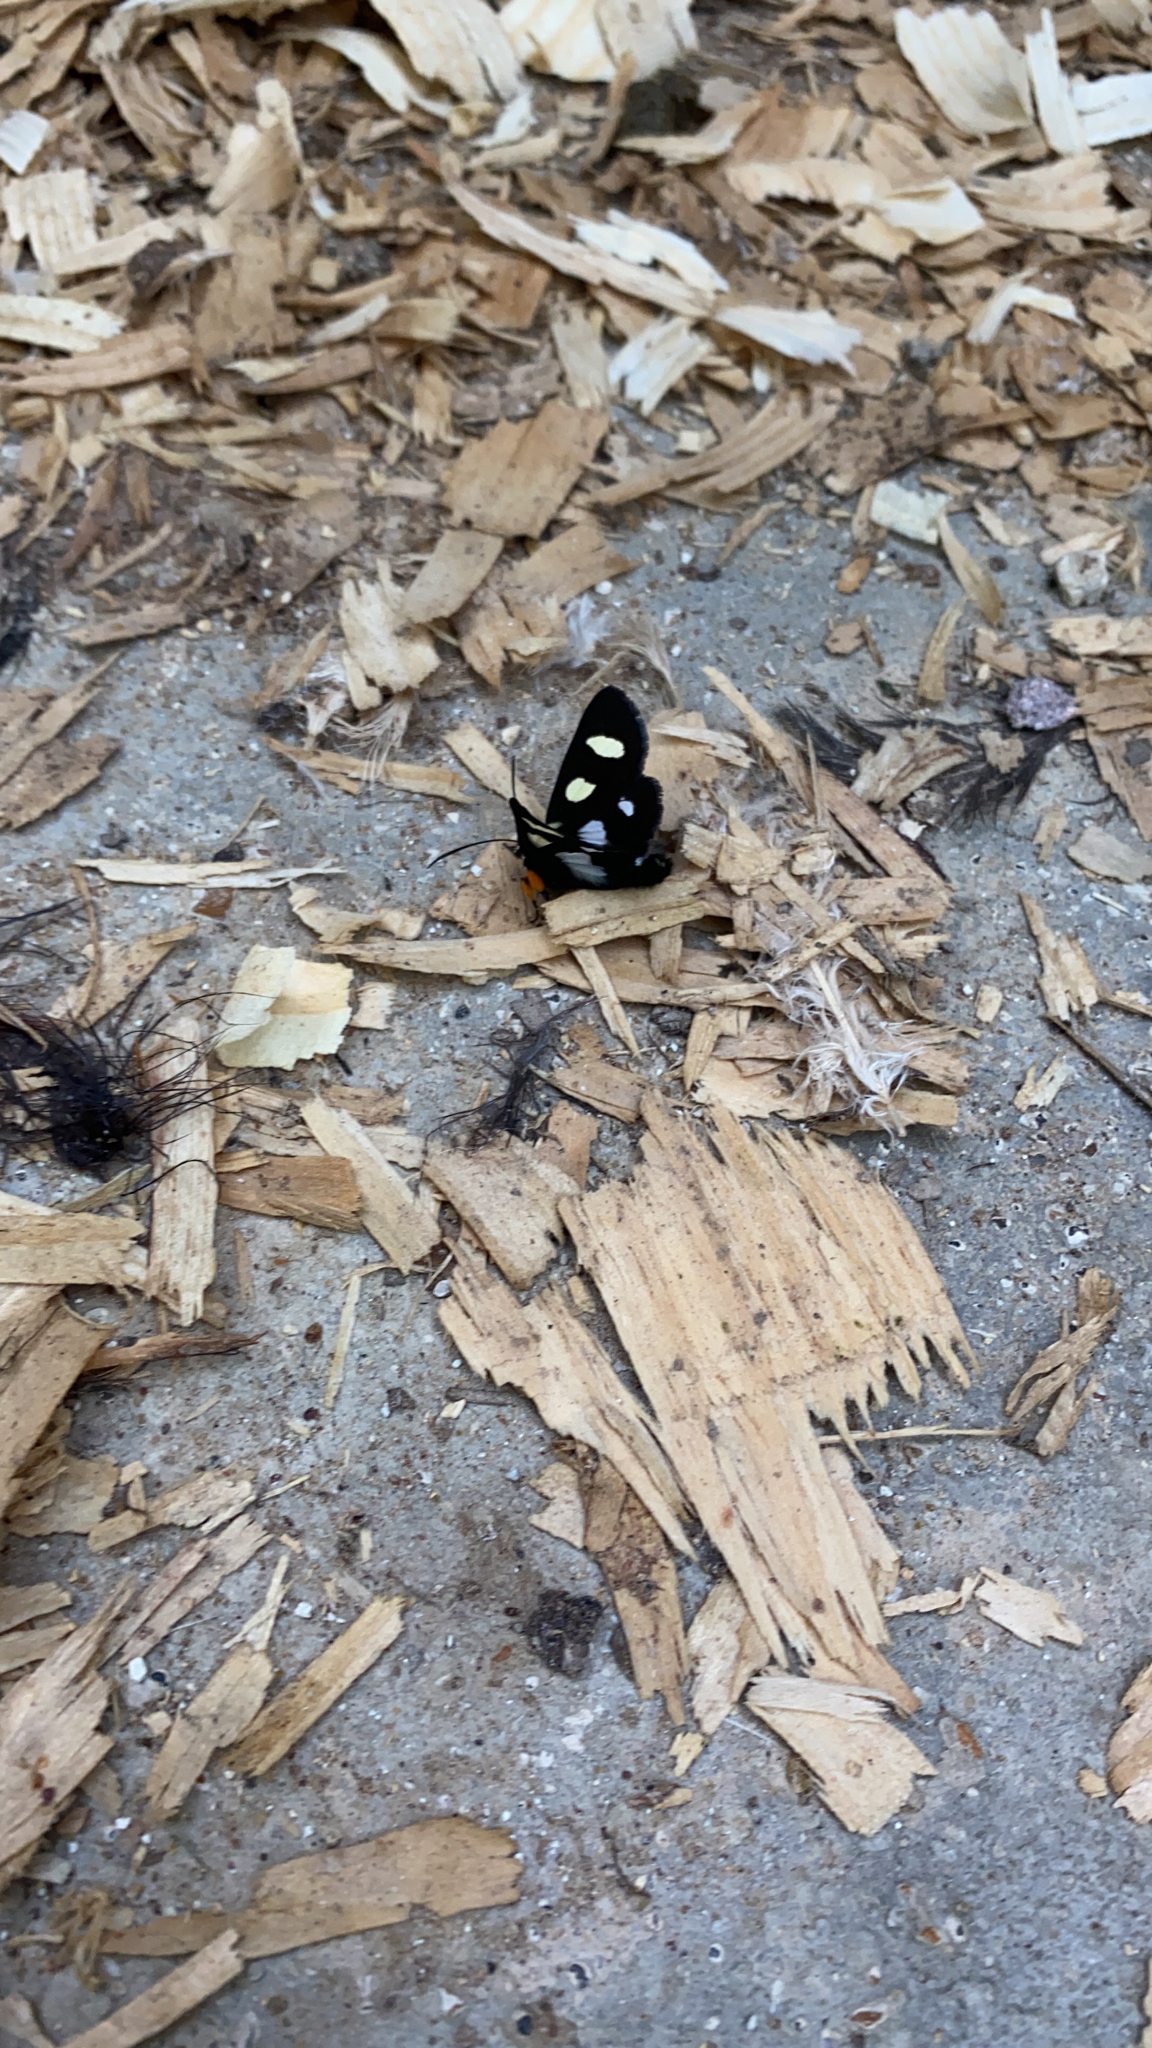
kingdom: Animalia
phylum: Arthropoda
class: Insecta
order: Lepidoptera
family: Noctuidae
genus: Alypia
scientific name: Alypia octomaculata
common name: Eight-spotted forester
